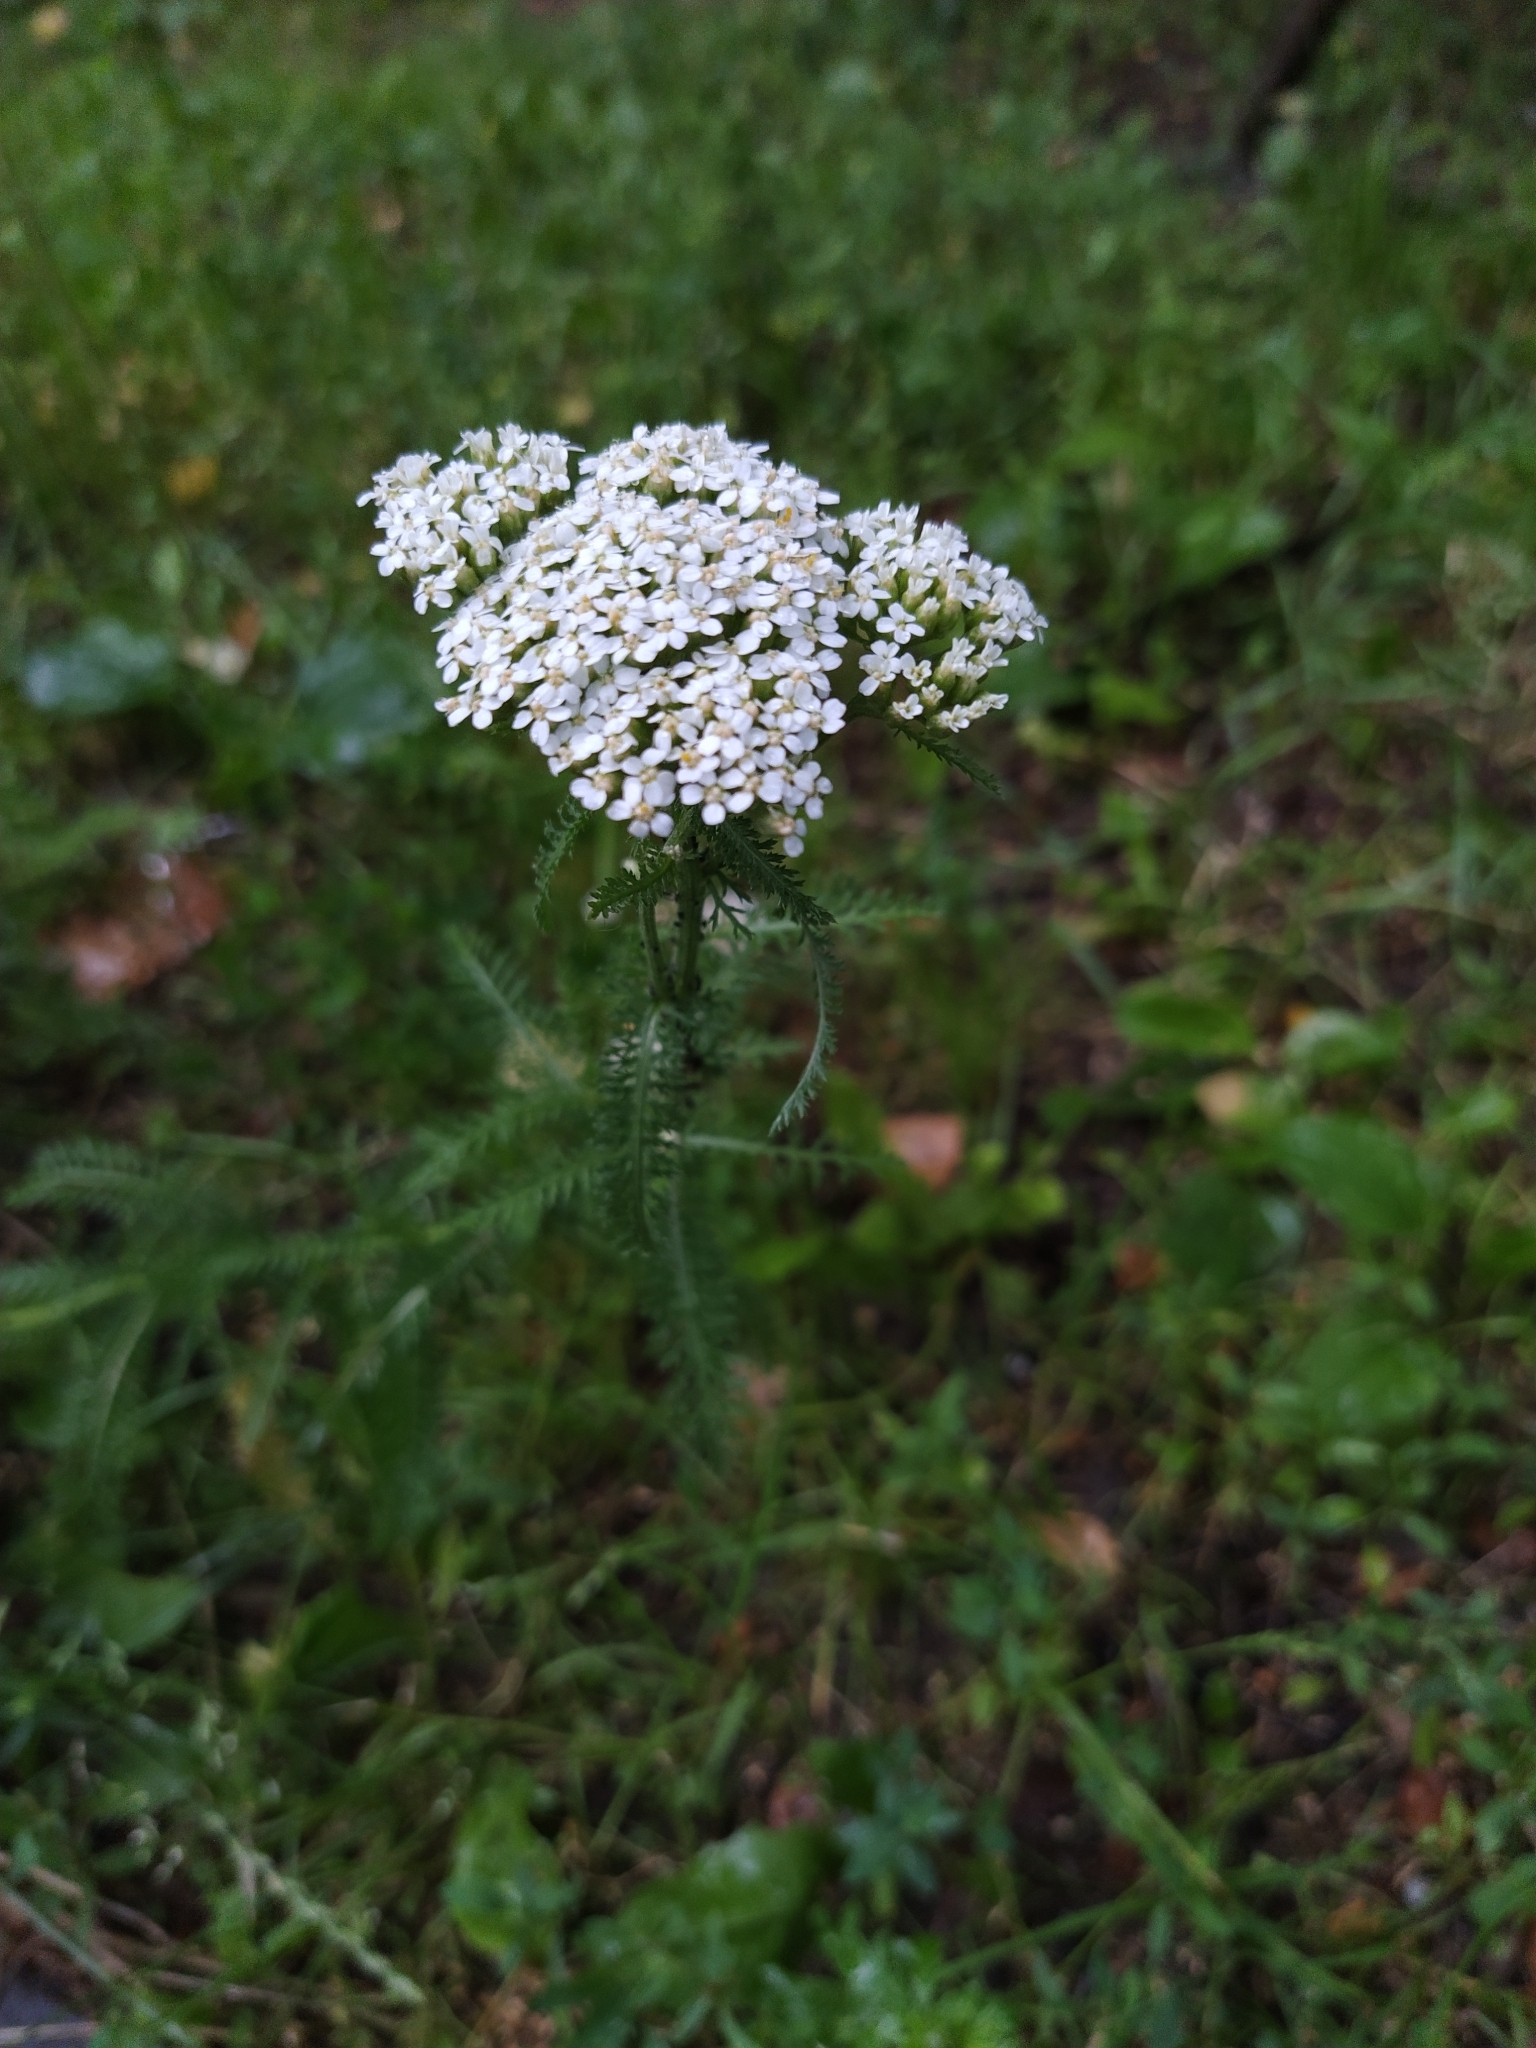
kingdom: Plantae
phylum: Tracheophyta
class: Magnoliopsida
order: Asterales
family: Asteraceae
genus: Achillea
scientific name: Achillea millefolium
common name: Yarrow
